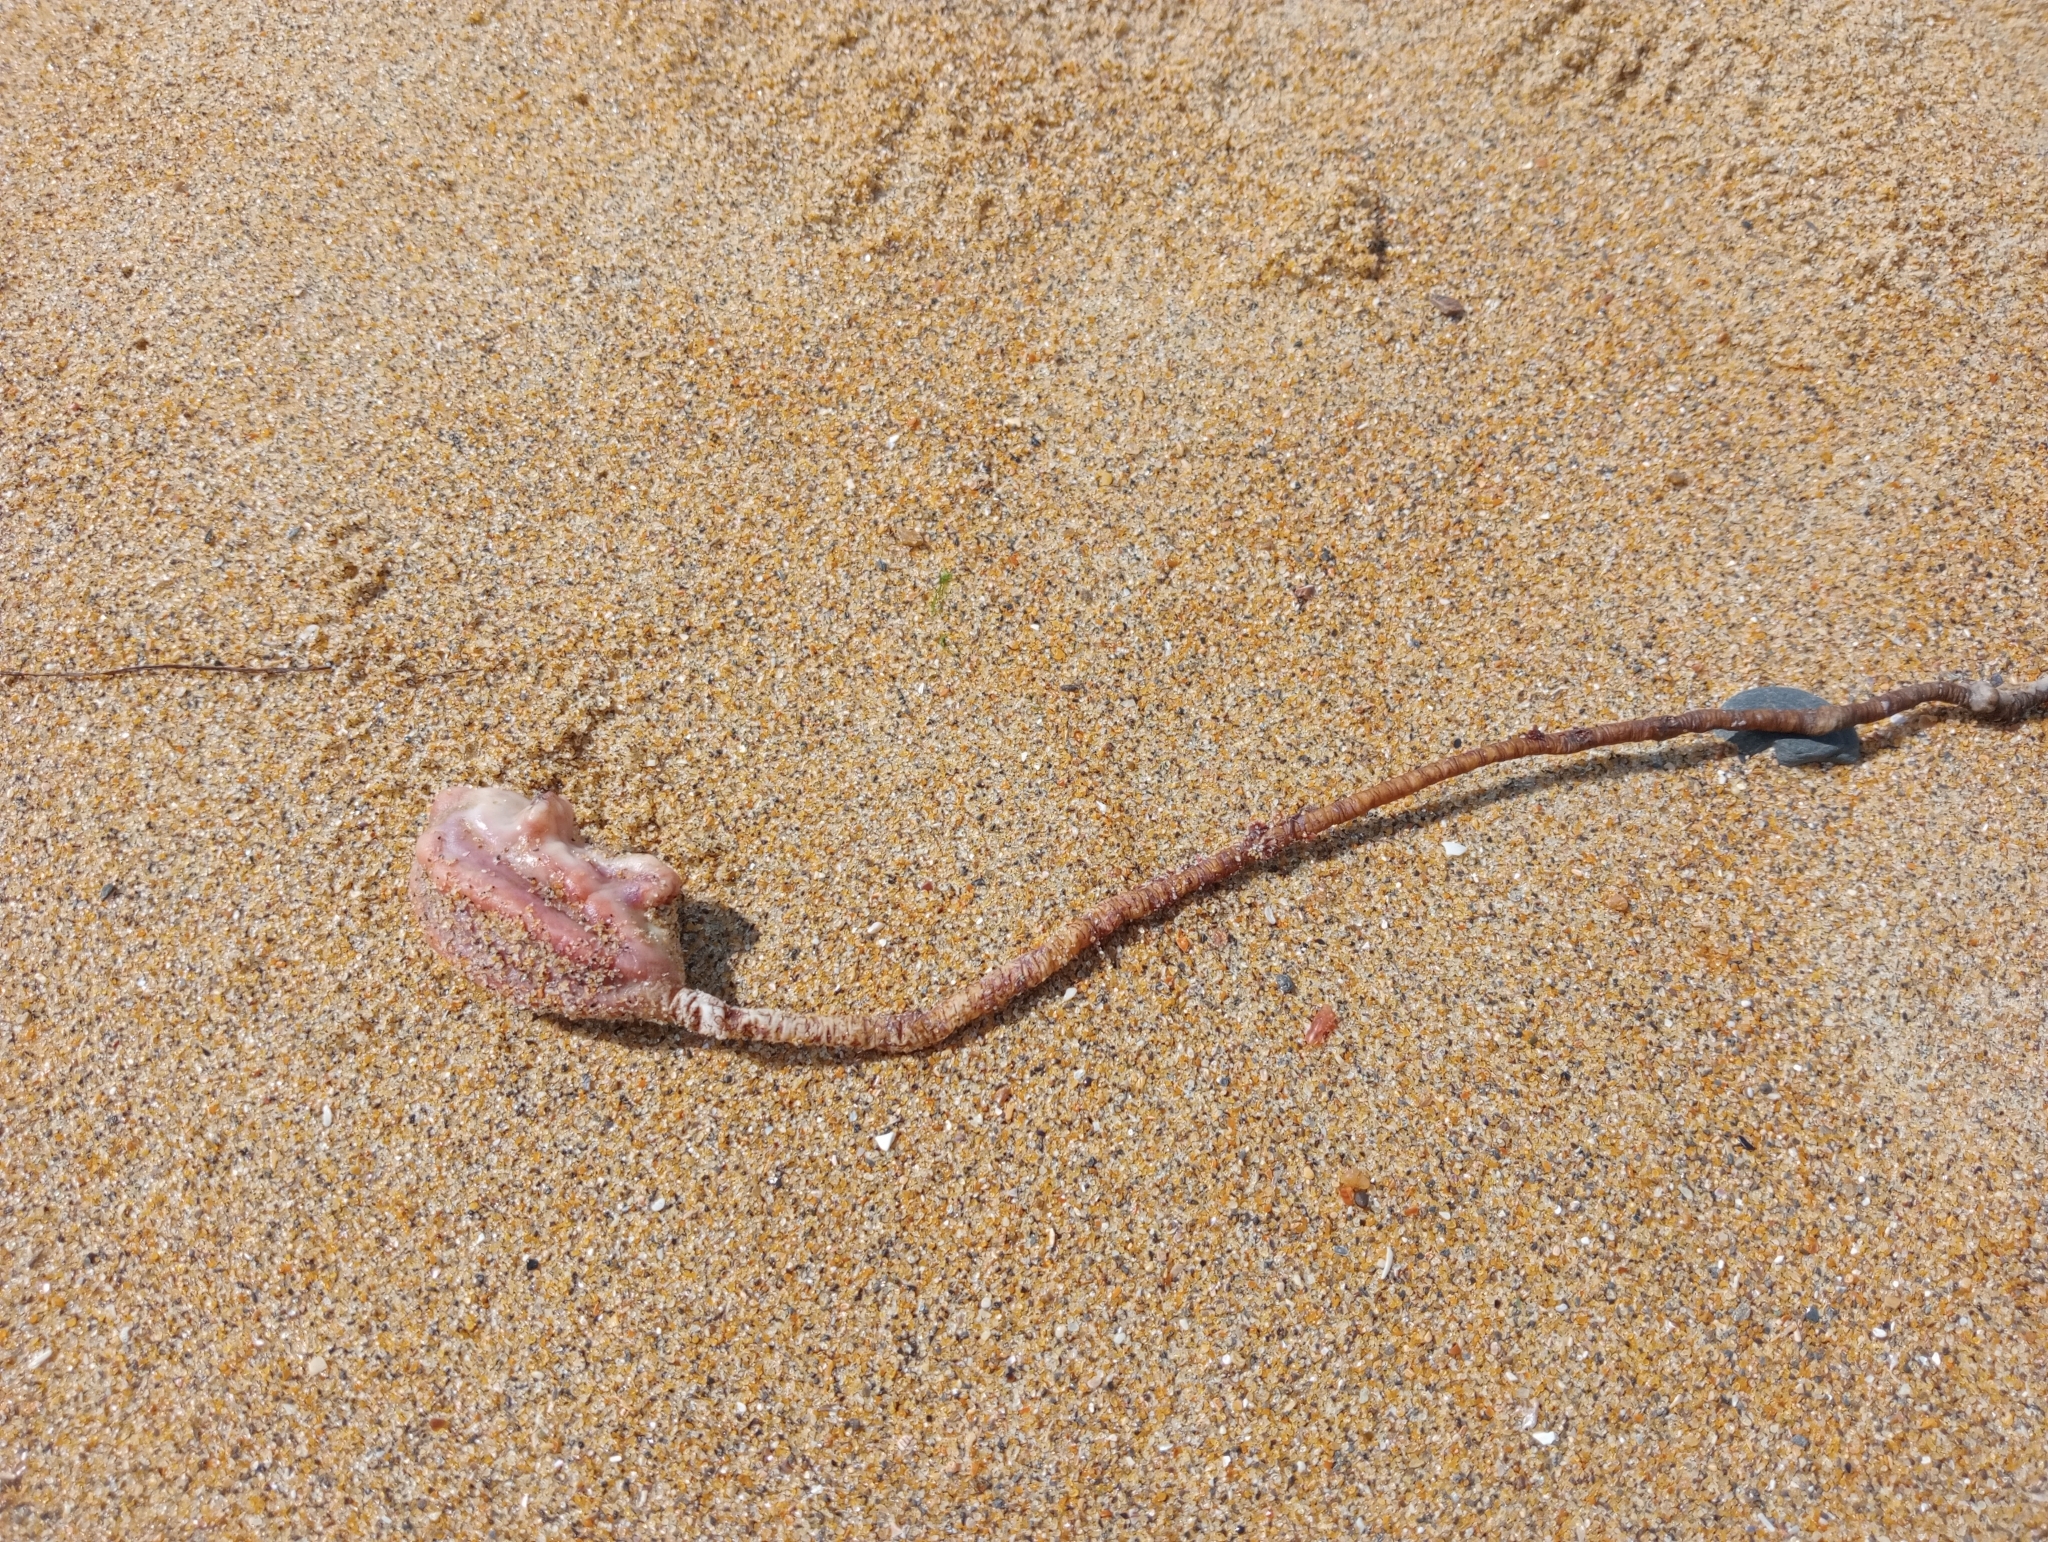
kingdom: Animalia
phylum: Chordata
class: Ascidiacea
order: Stolidobranchia
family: Pyuridae
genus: Pyura
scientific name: Pyura pachydermatina
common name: Sea tulip
